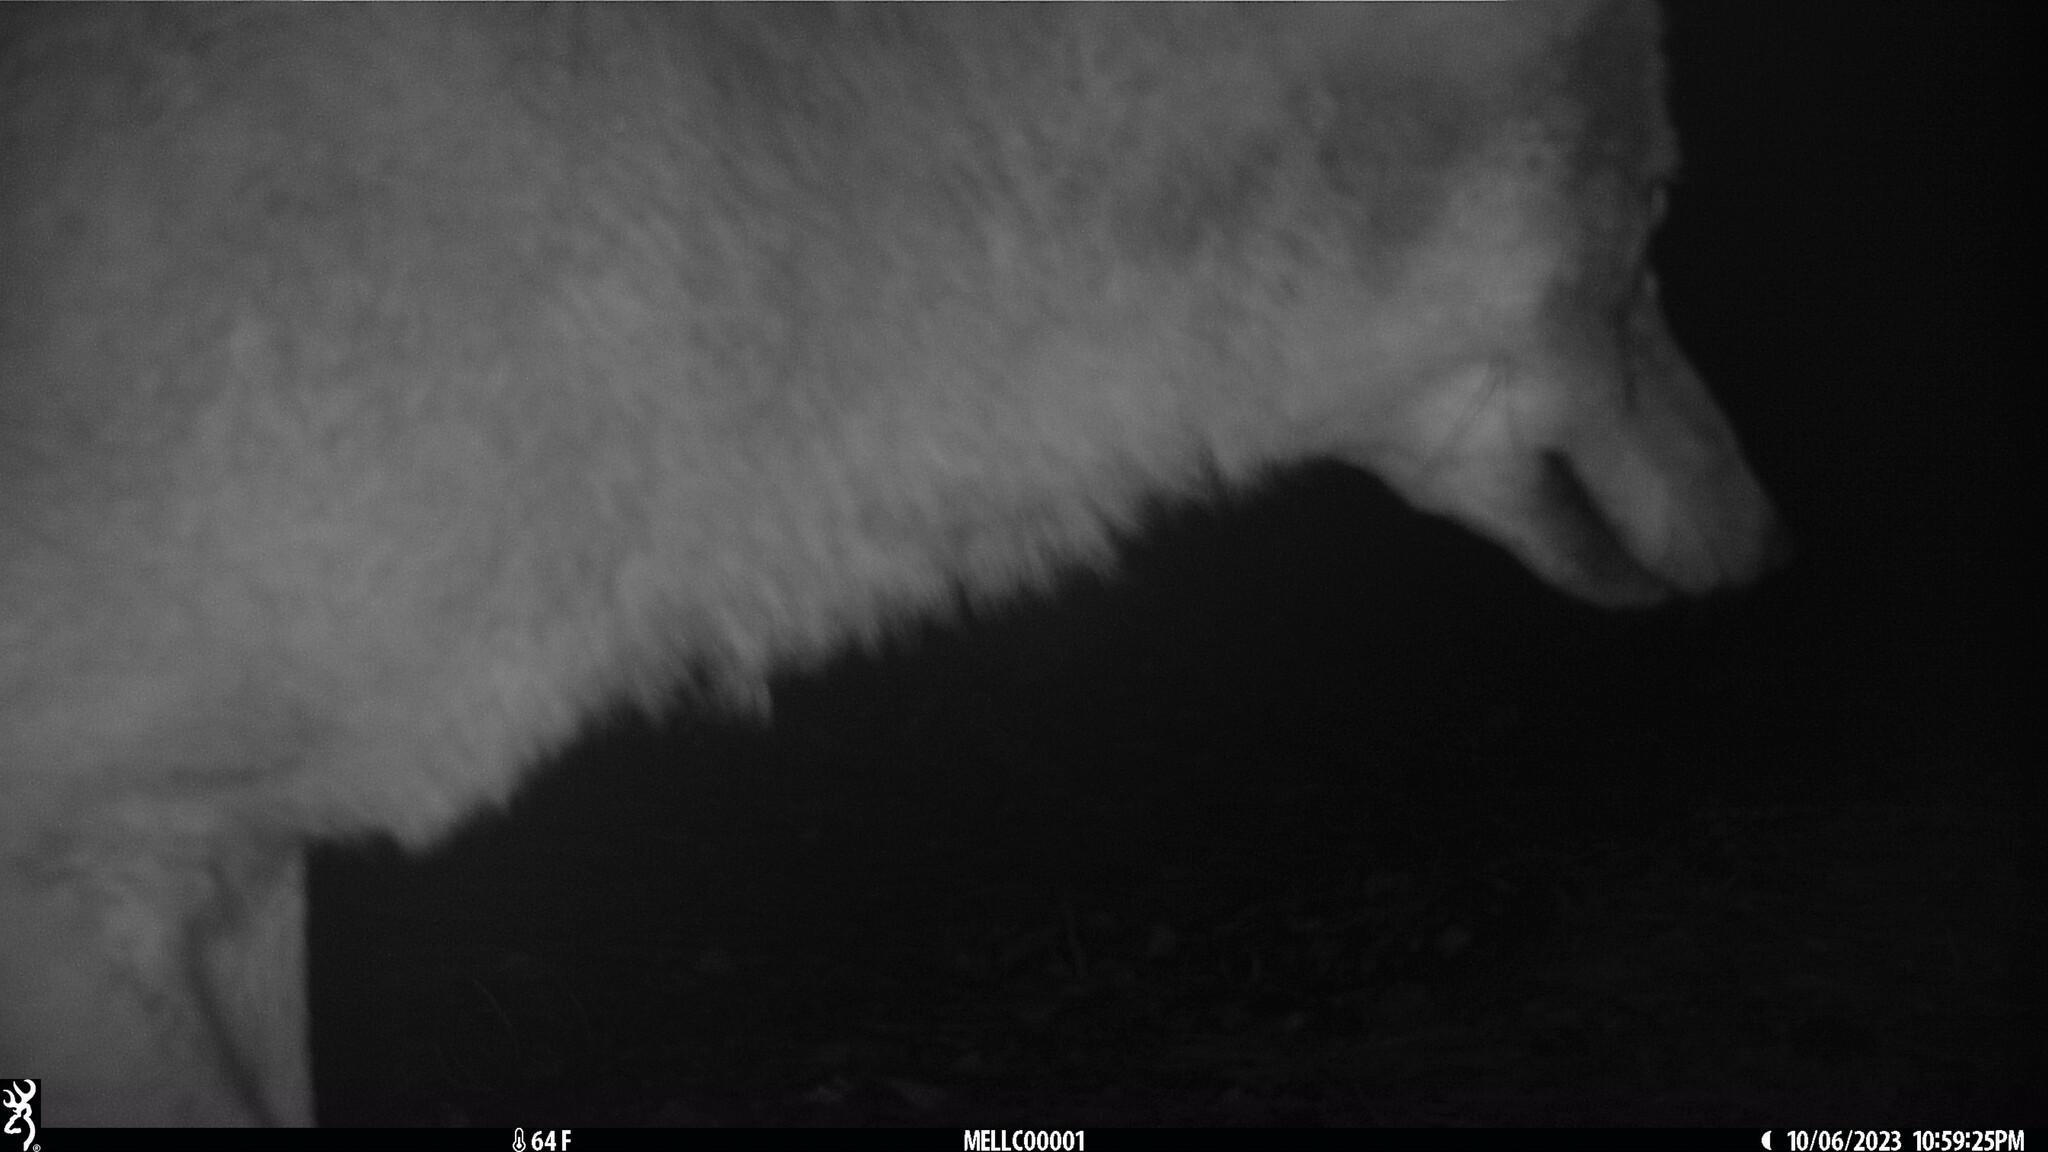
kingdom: Animalia
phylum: Chordata
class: Mammalia
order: Carnivora
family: Canidae
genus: Canis
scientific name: Canis latrans
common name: Coyote
